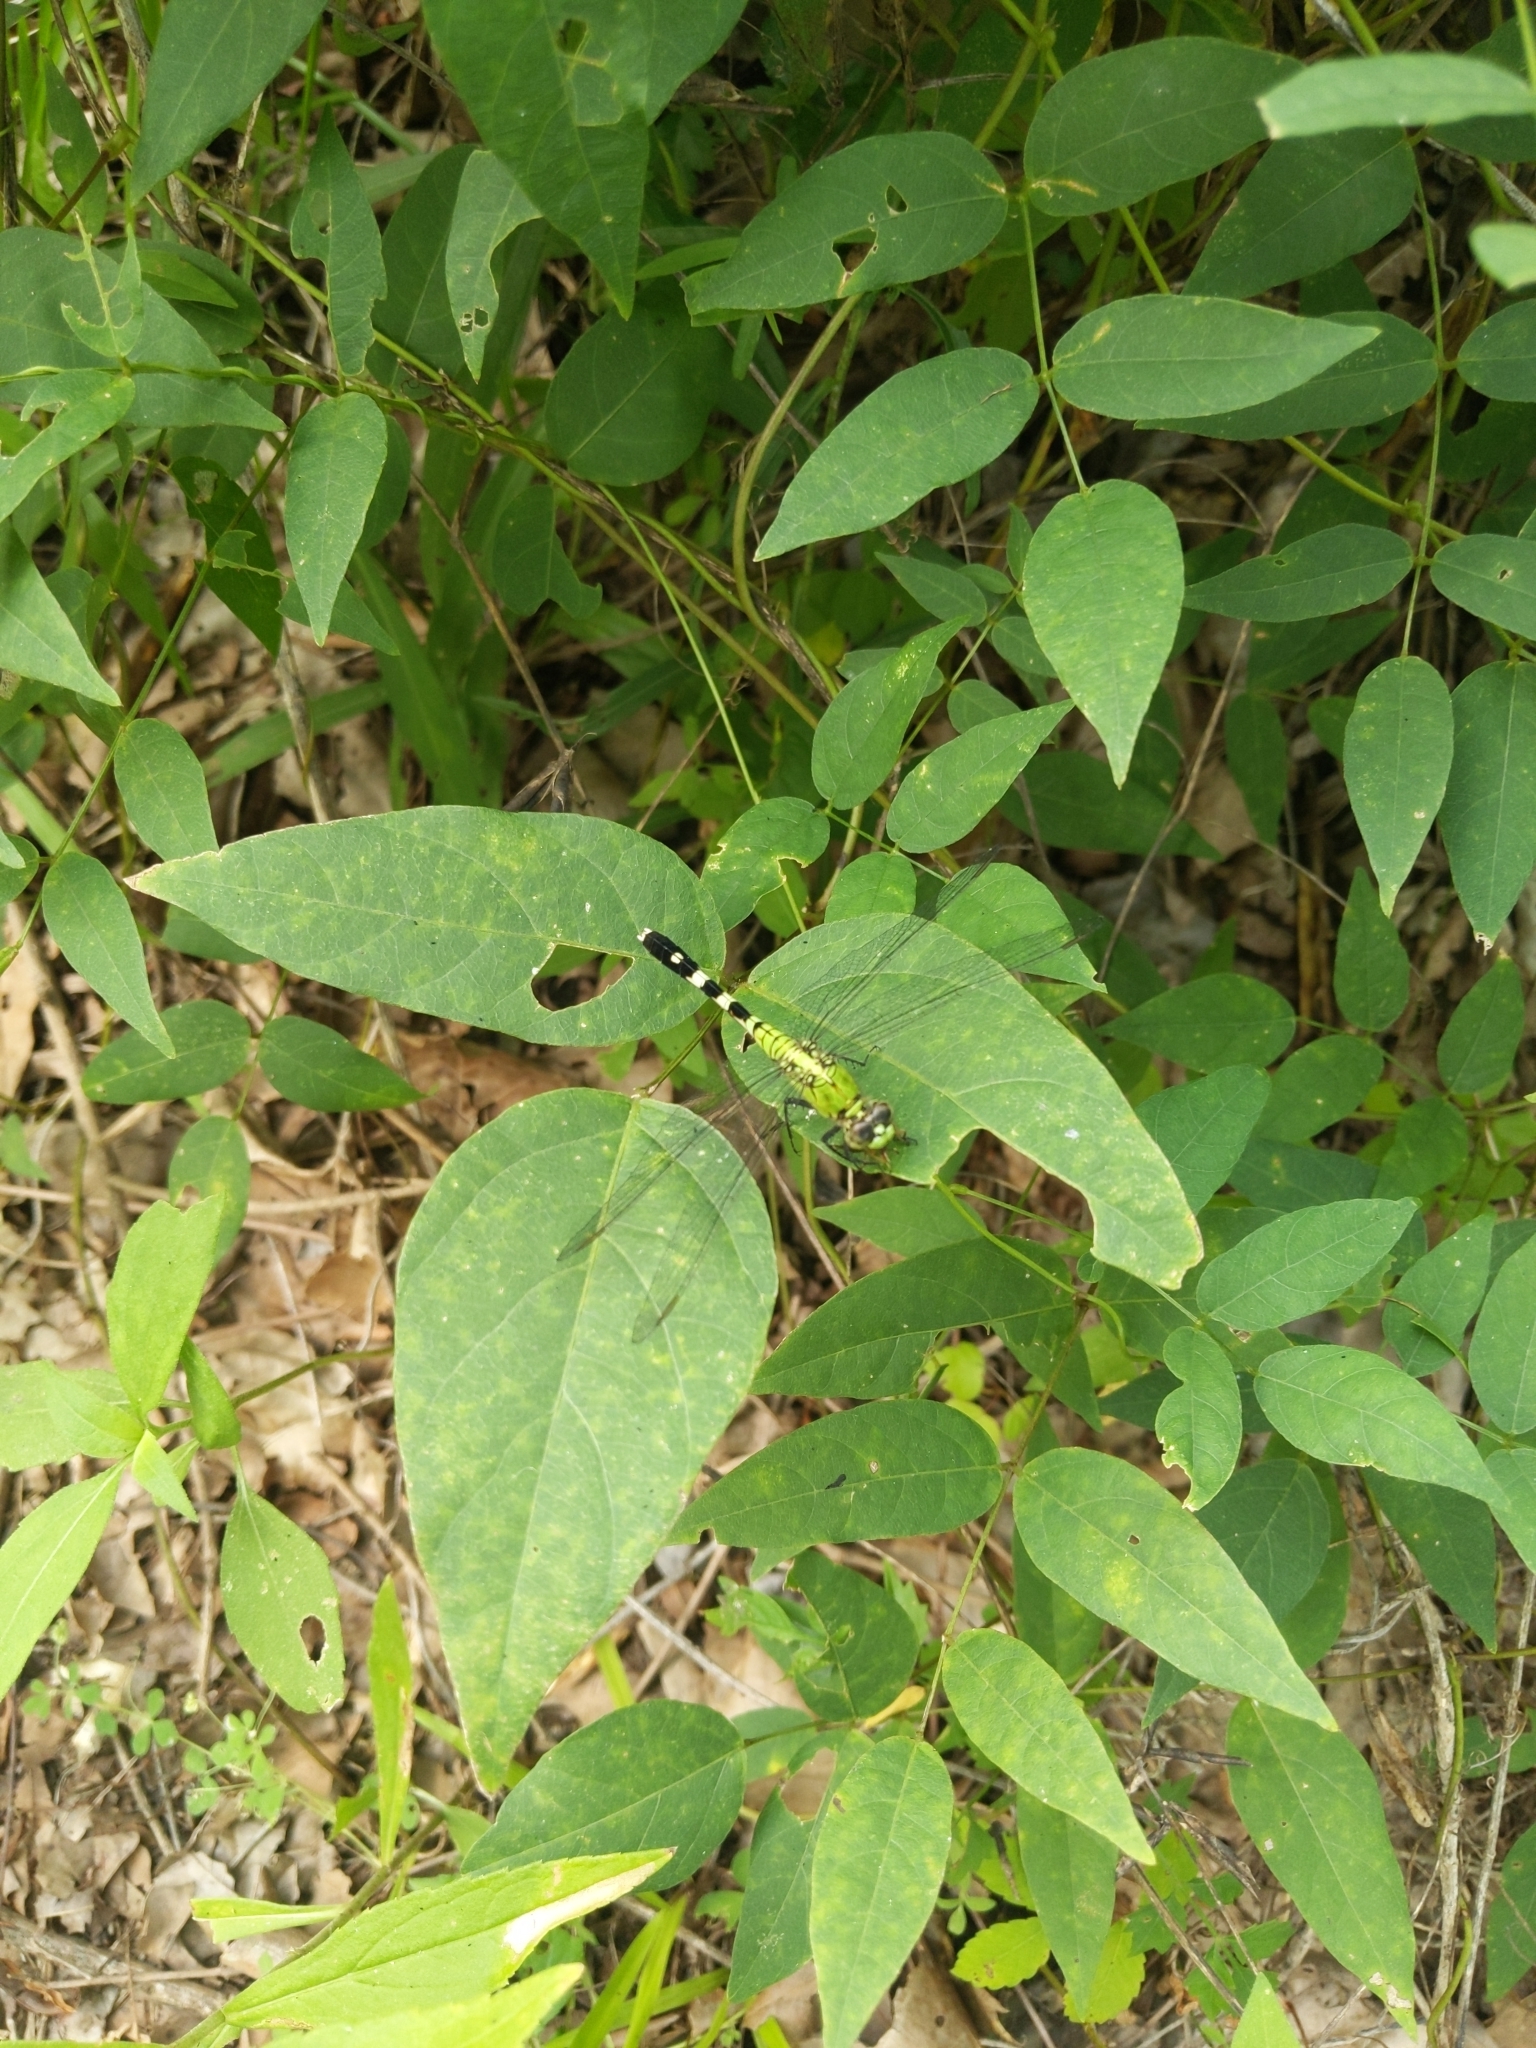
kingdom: Animalia
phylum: Arthropoda
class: Insecta
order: Odonata
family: Libellulidae
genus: Erythemis
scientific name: Erythemis simplicicollis
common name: Eastern pondhawk
